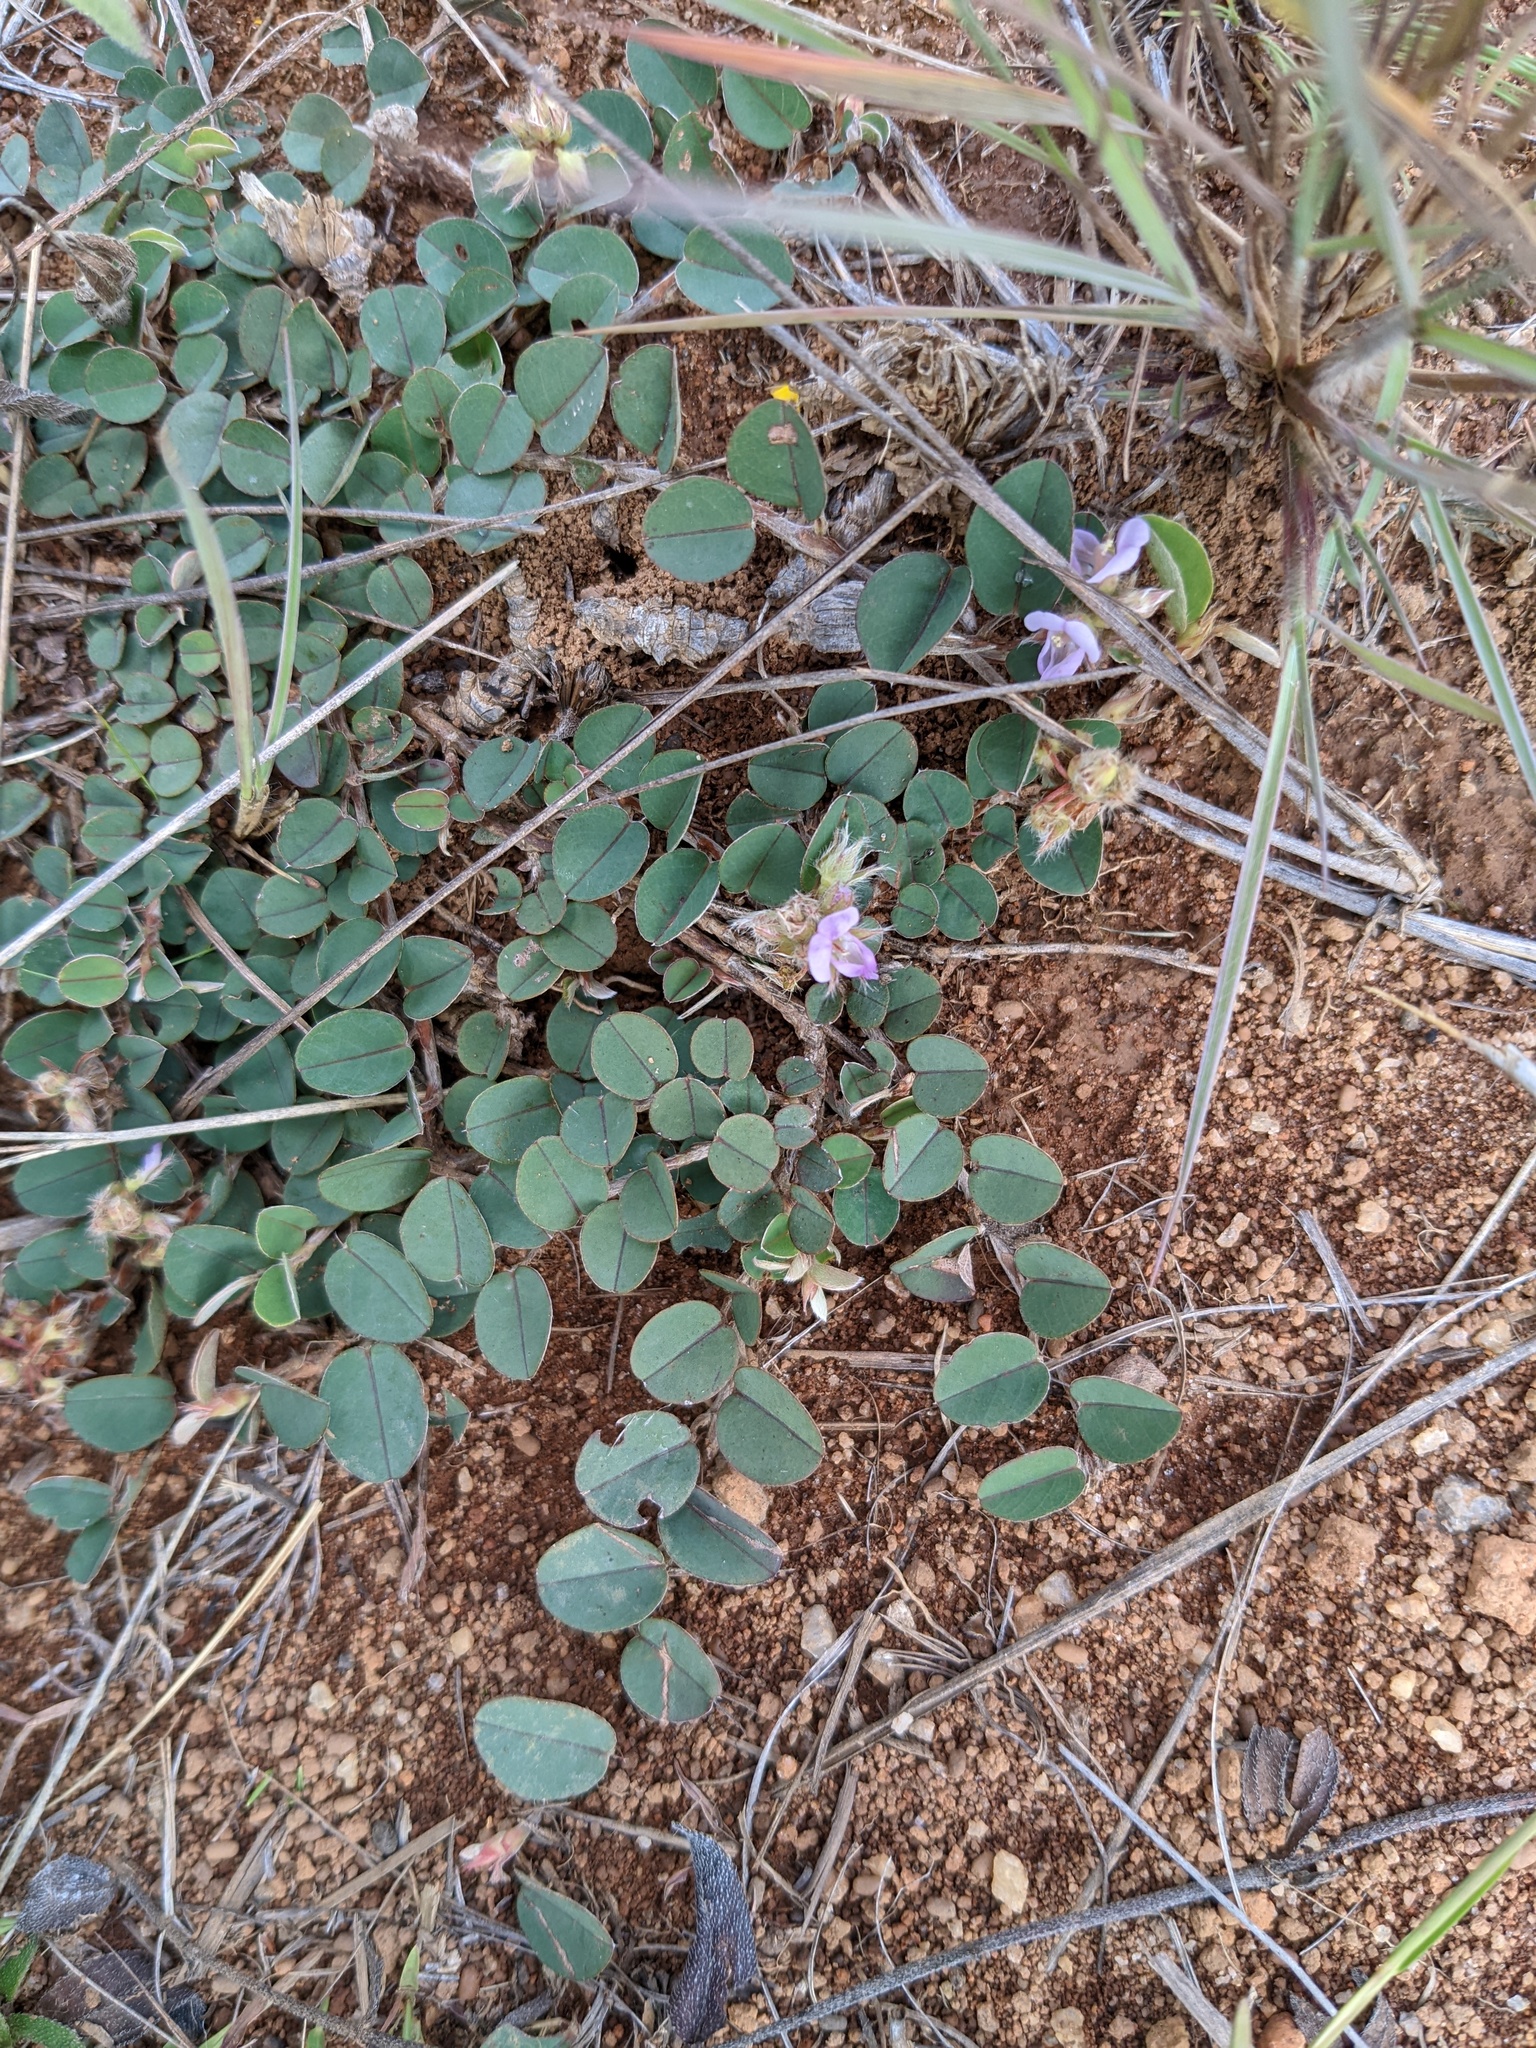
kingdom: Plantae
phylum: Tracheophyta
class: Magnoliopsida
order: Fabales
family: Fabaceae
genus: Leptodesmia
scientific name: Leptodesmia congesta
